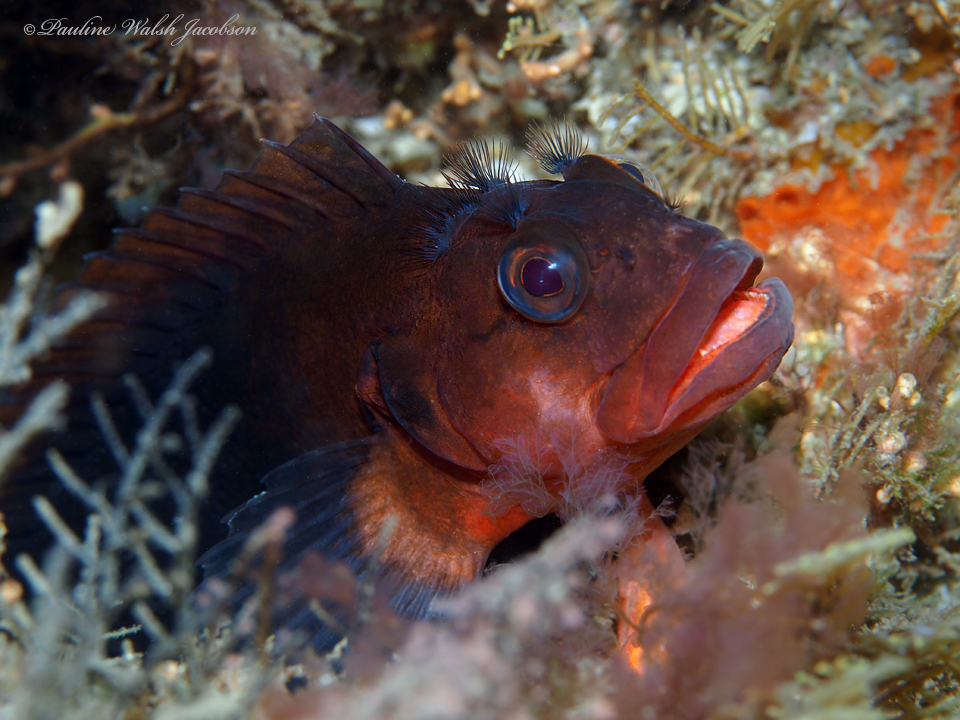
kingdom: Animalia
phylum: Chordata
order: Perciformes
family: Labrisomidae
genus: Labrisomus
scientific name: Labrisomus conditus
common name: Masquerader hairy blenny
